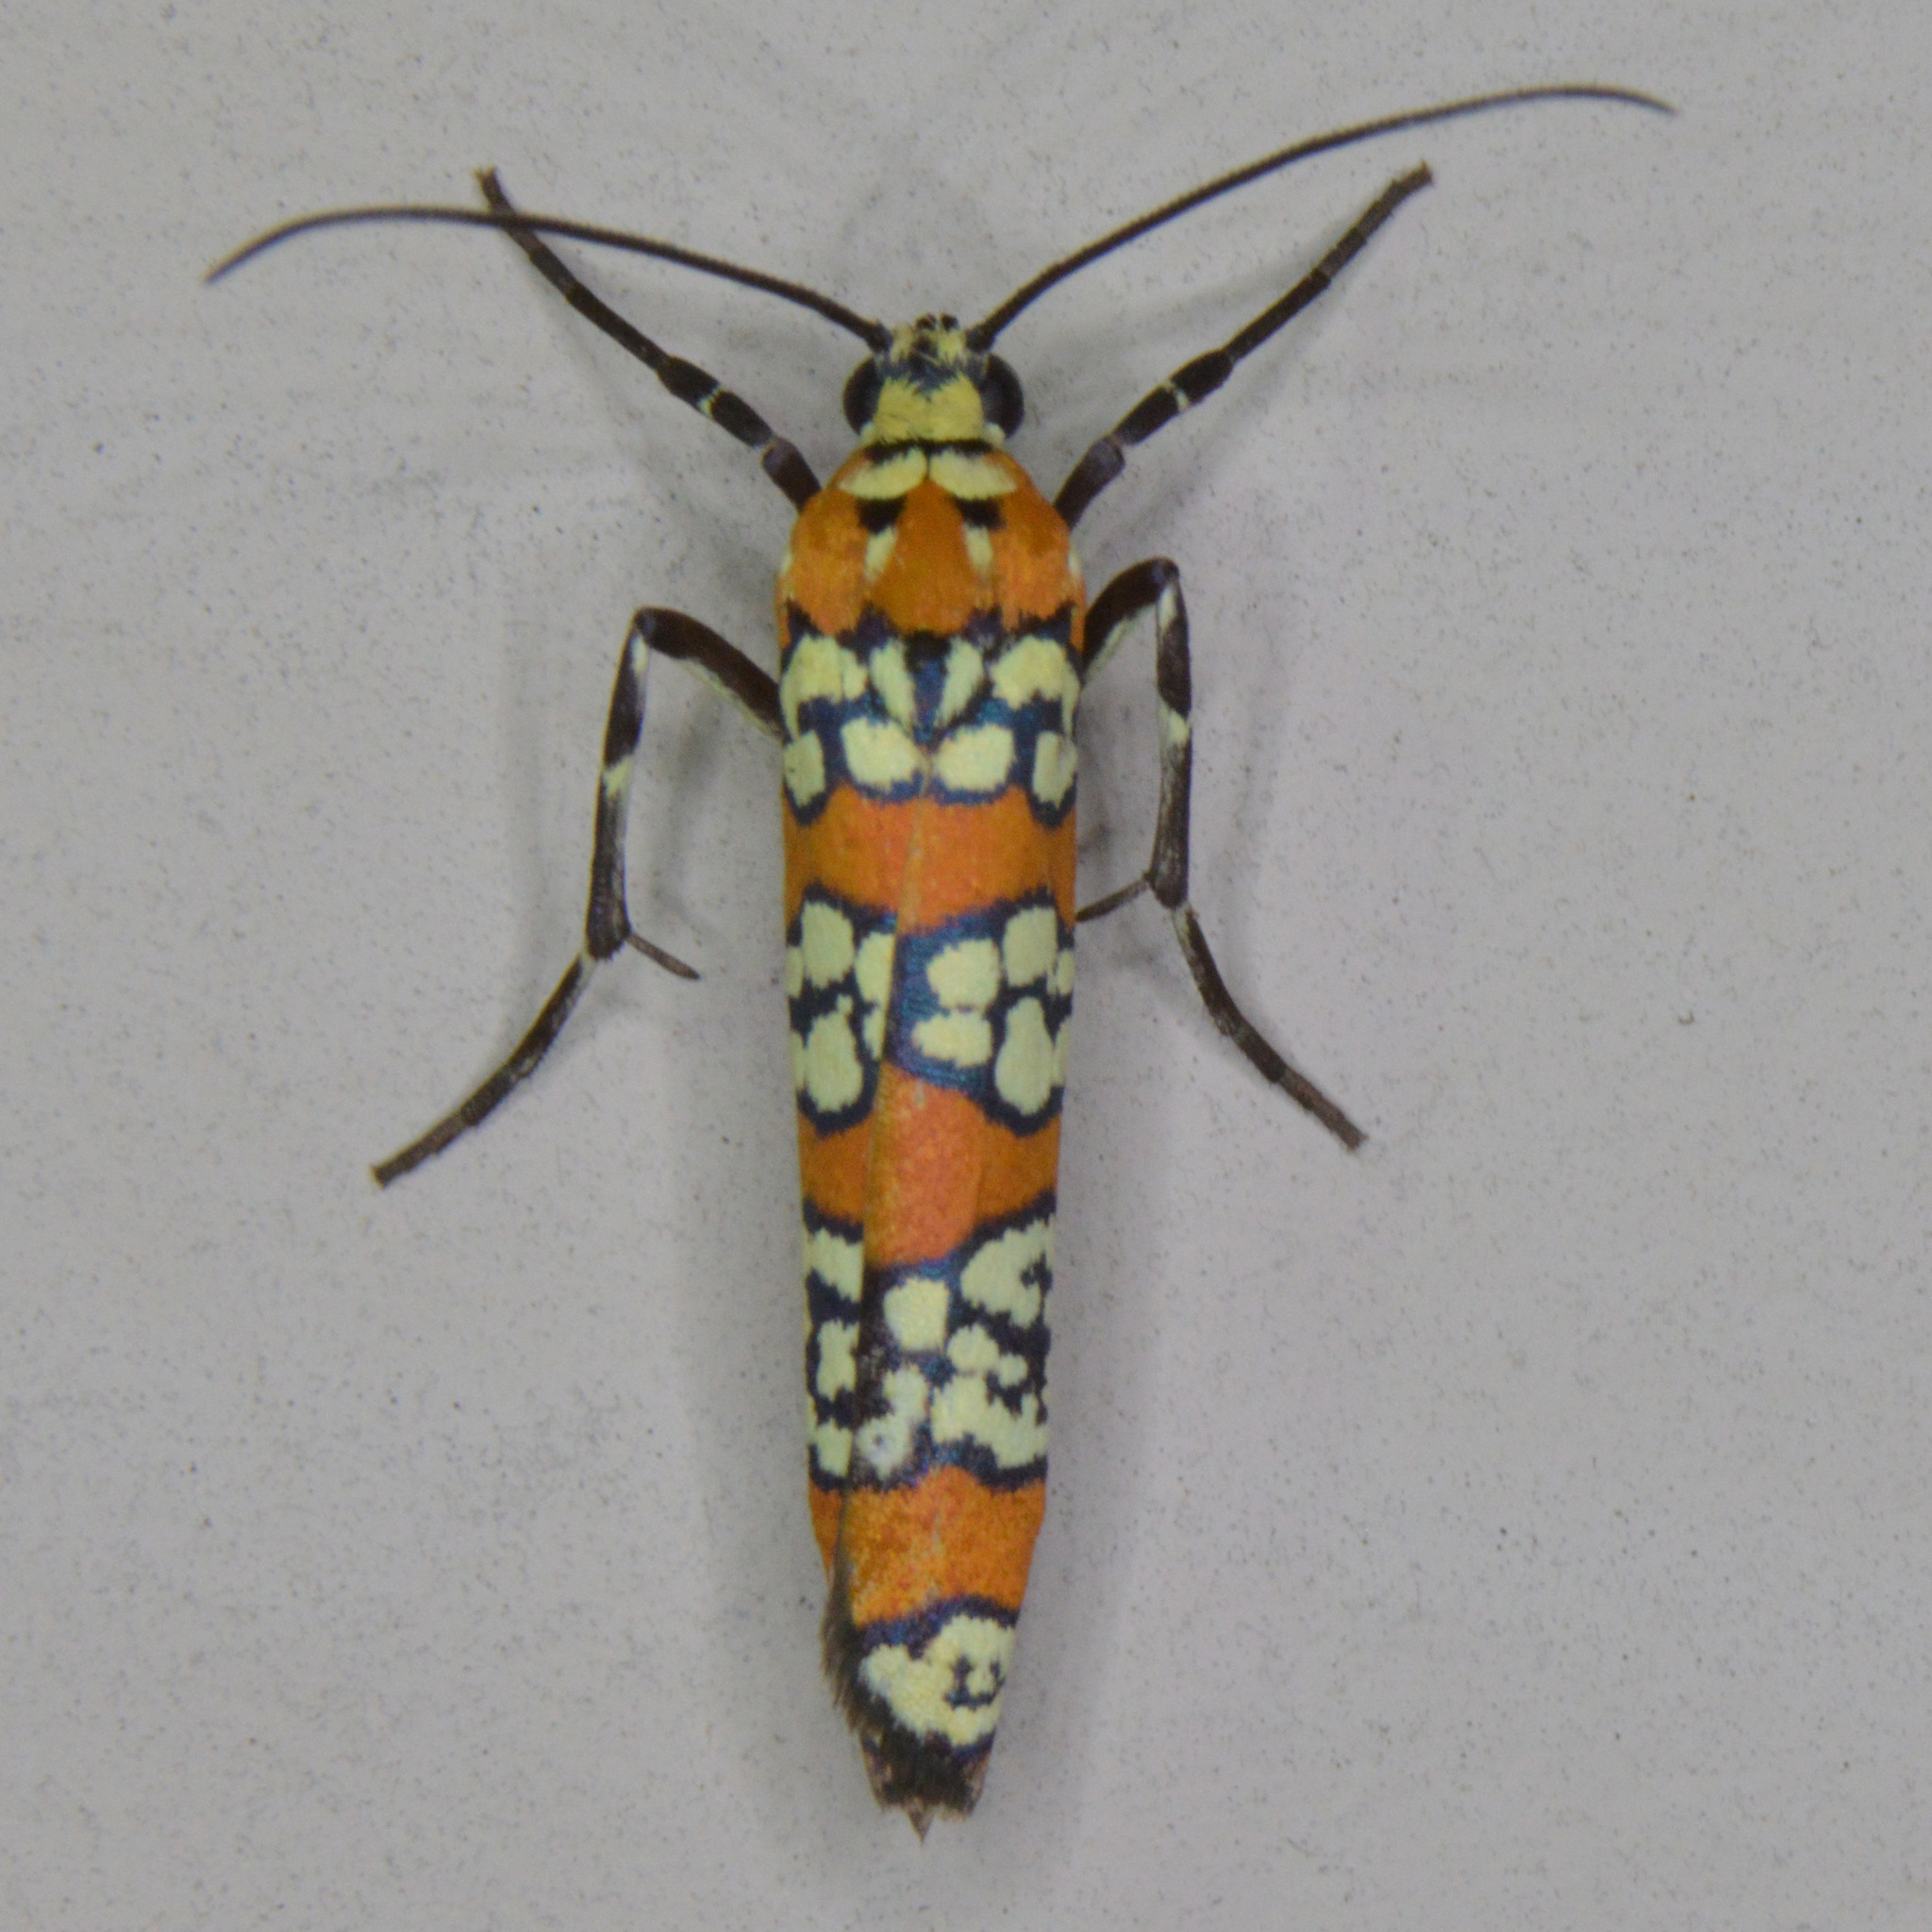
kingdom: Animalia
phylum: Arthropoda
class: Insecta
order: Lepidoptera
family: Attevidae
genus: Atteva
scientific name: Atteva punctella
